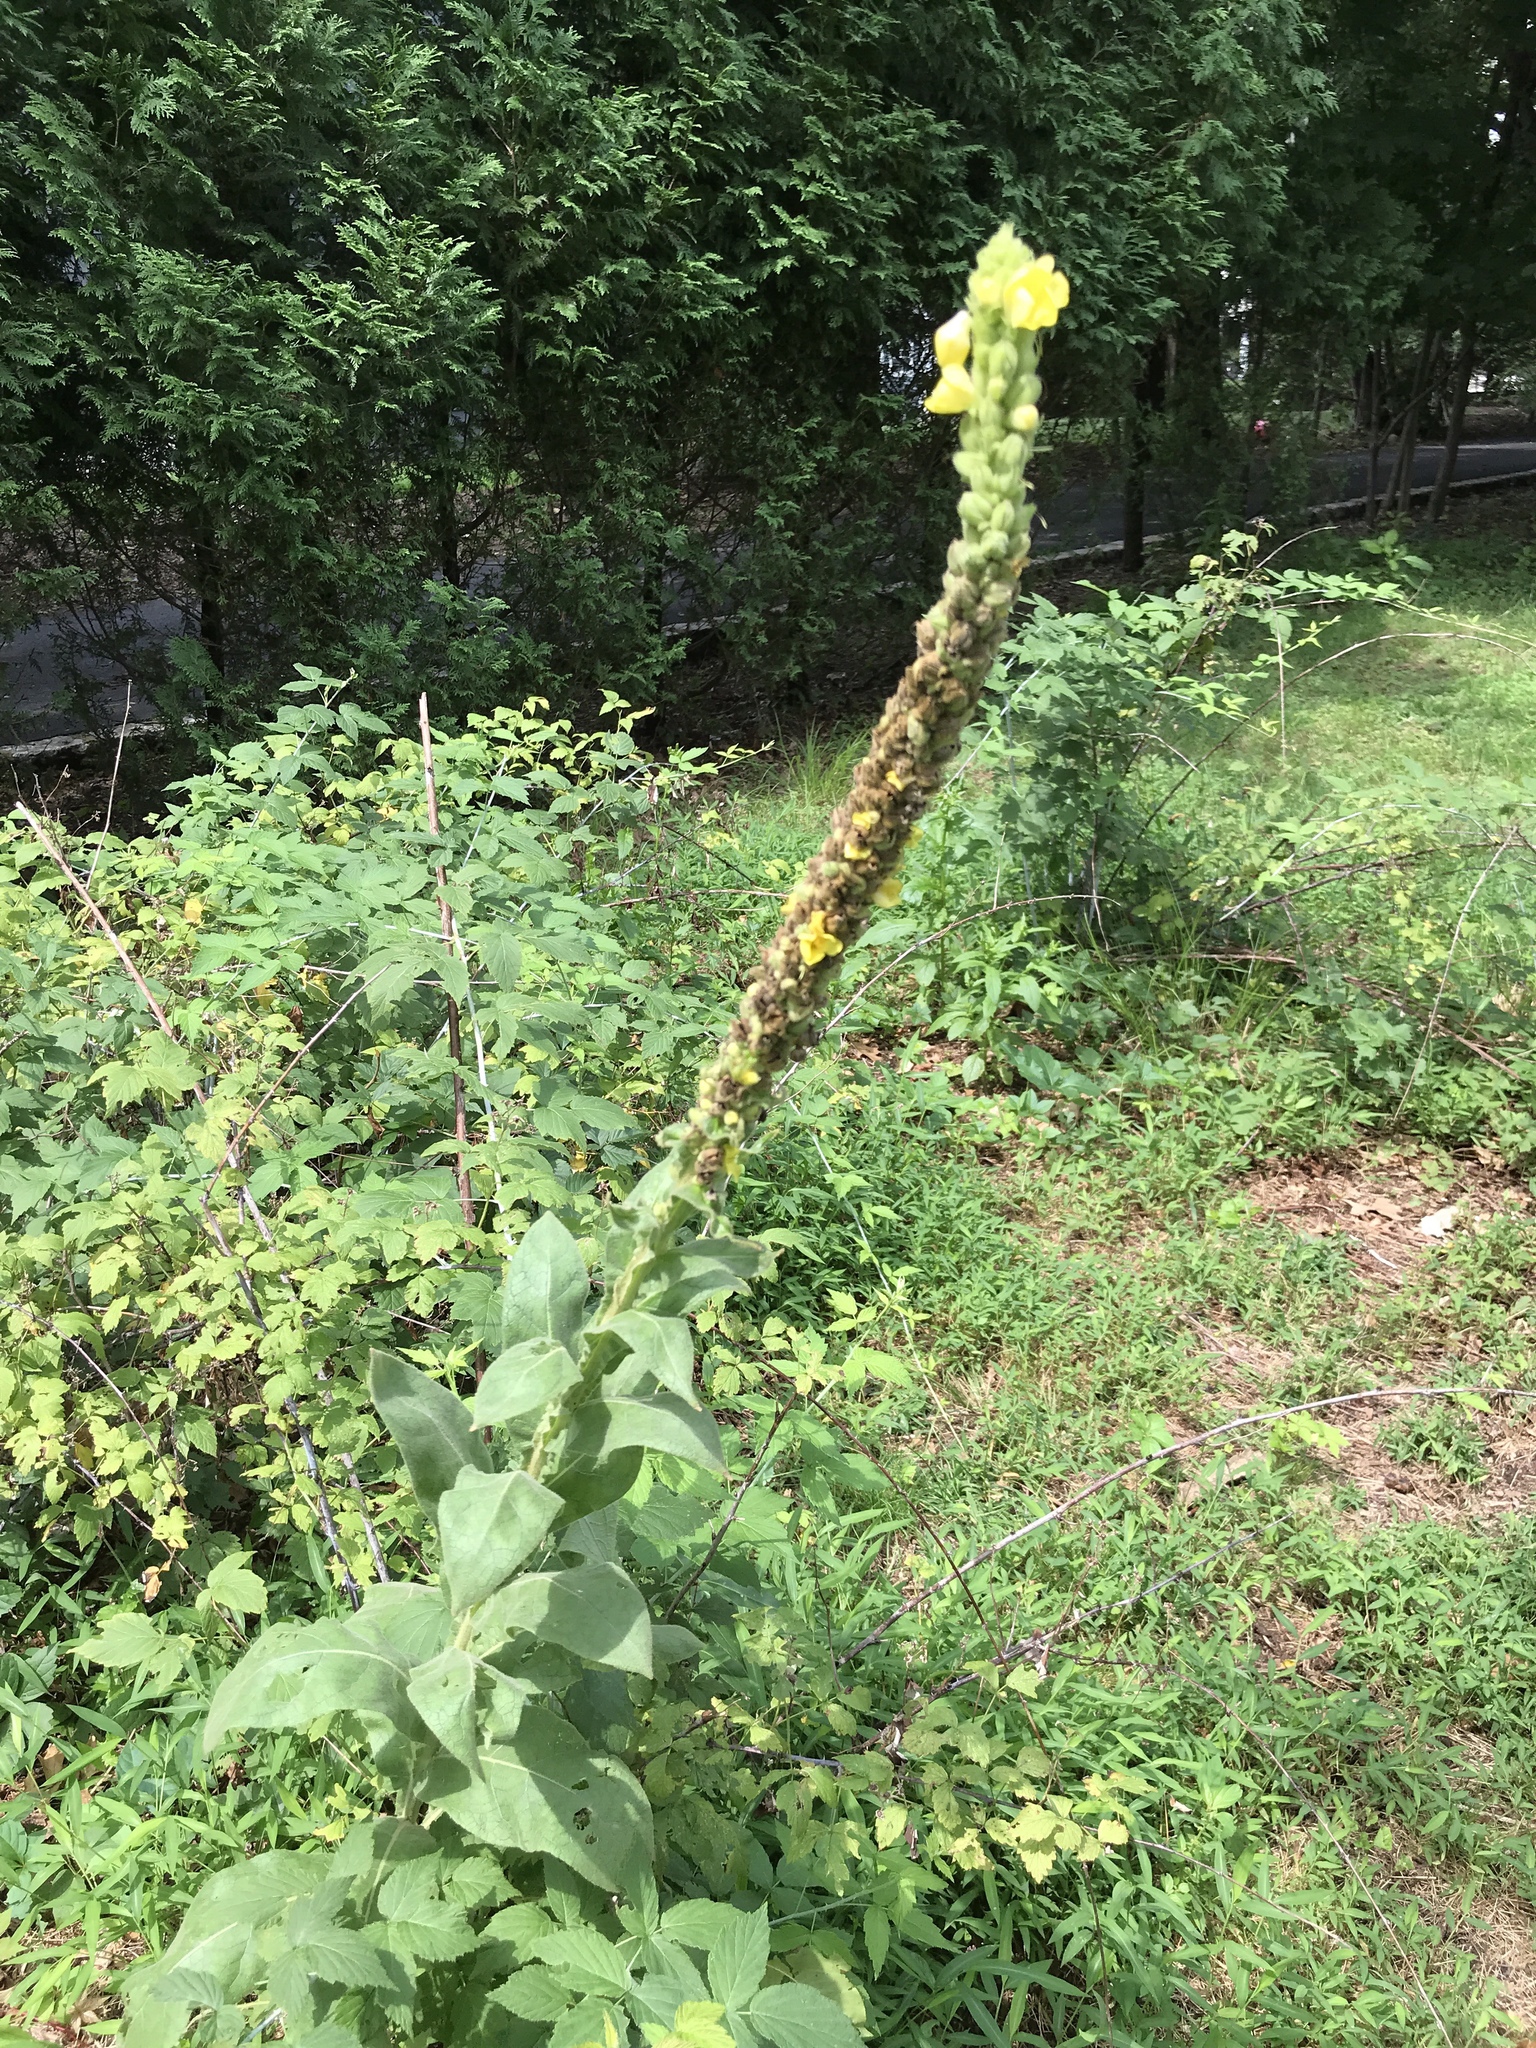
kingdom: Plantae
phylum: Tracheophyta
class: Magnoliopsida
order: Lamiales
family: Scrophulariaceae
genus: Verbascum
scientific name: Verbascum thapsus
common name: Common mullein
